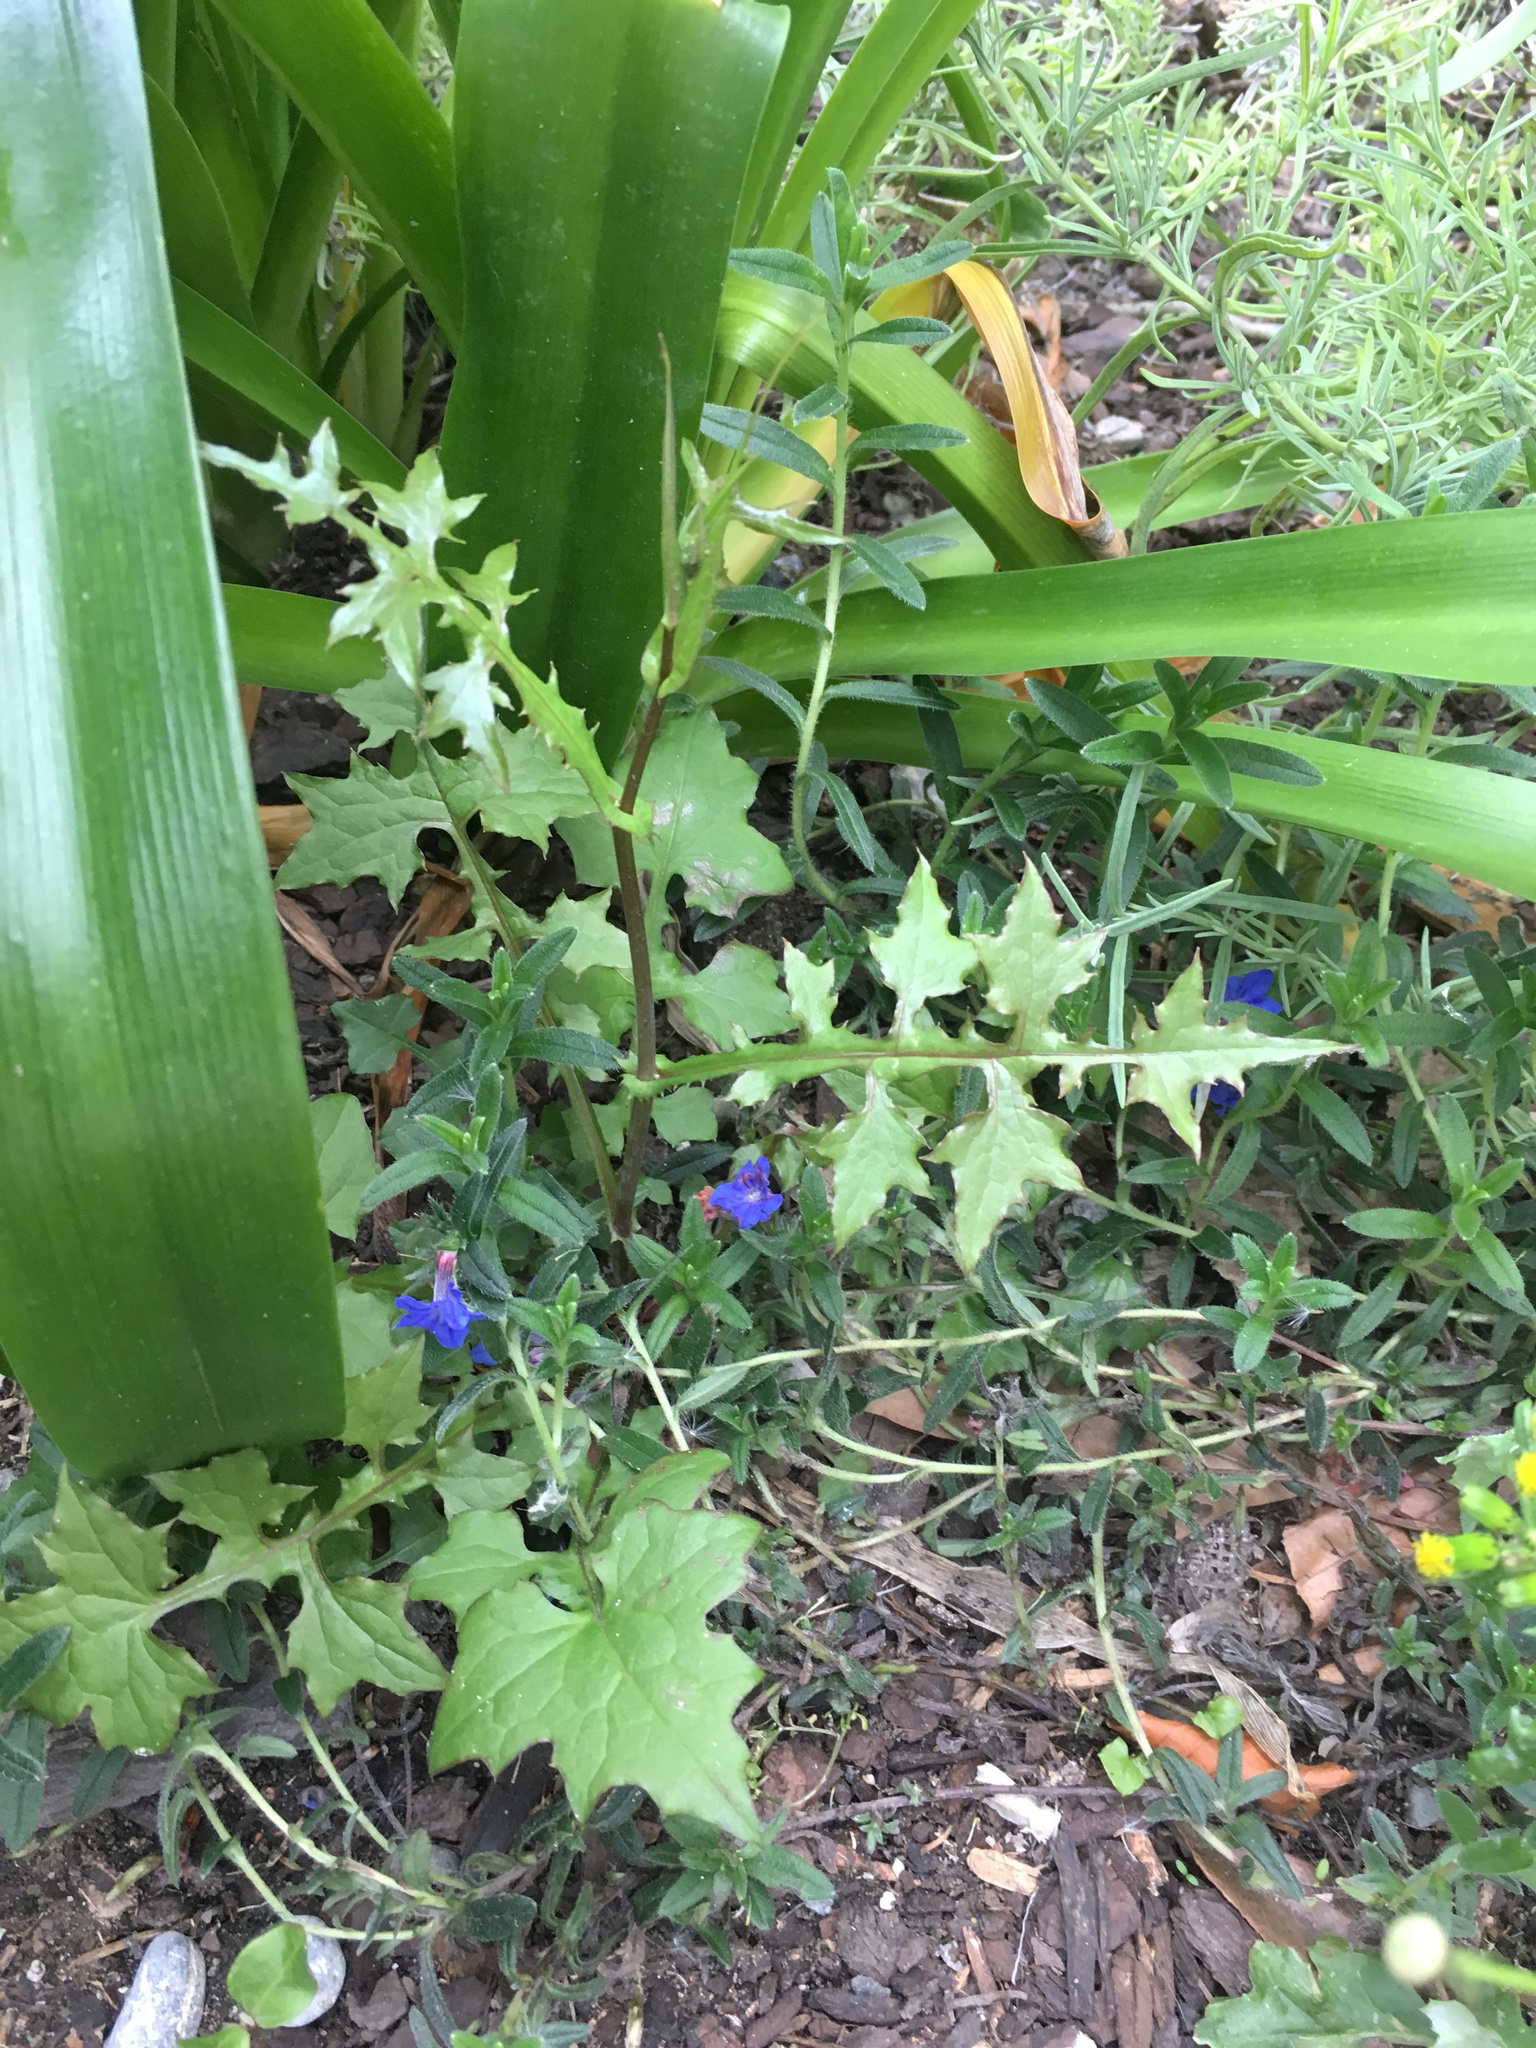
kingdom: Plantae
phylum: Tracheophyta
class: Magnoliopsida
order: Asterales
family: Asteraceae
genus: Mycelis
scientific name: Mycelis muralis
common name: Wall lettuce
